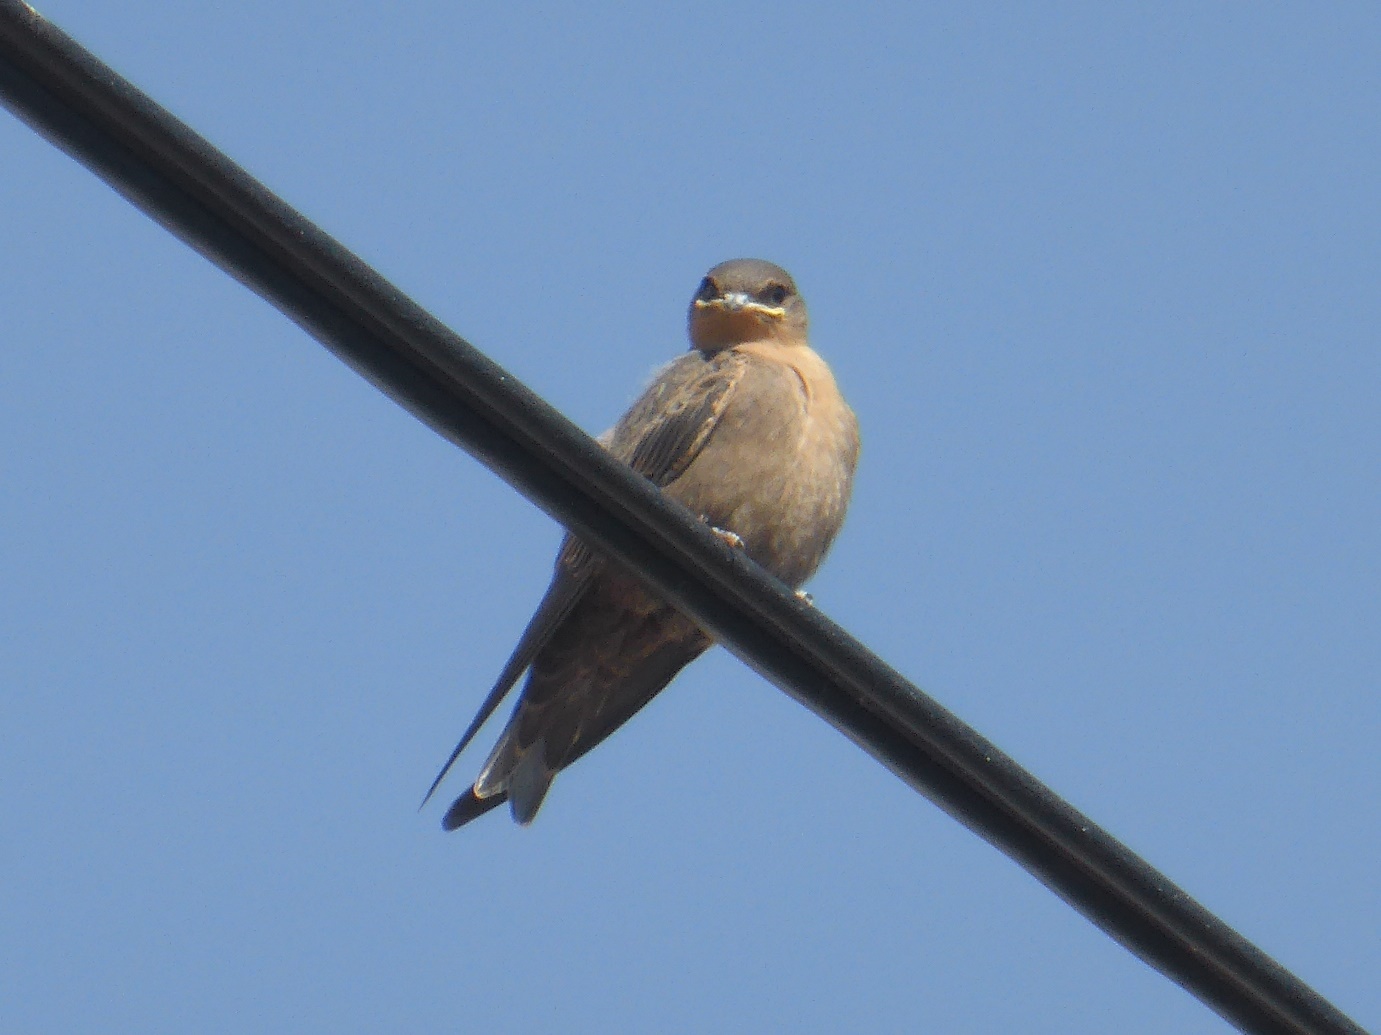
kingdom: Animalia
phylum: Chordata
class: Aves
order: Passeriformes
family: Hirundinidae
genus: Ptyonoprogne
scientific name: Ptyonoprogne fuligula
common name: Rock martin
